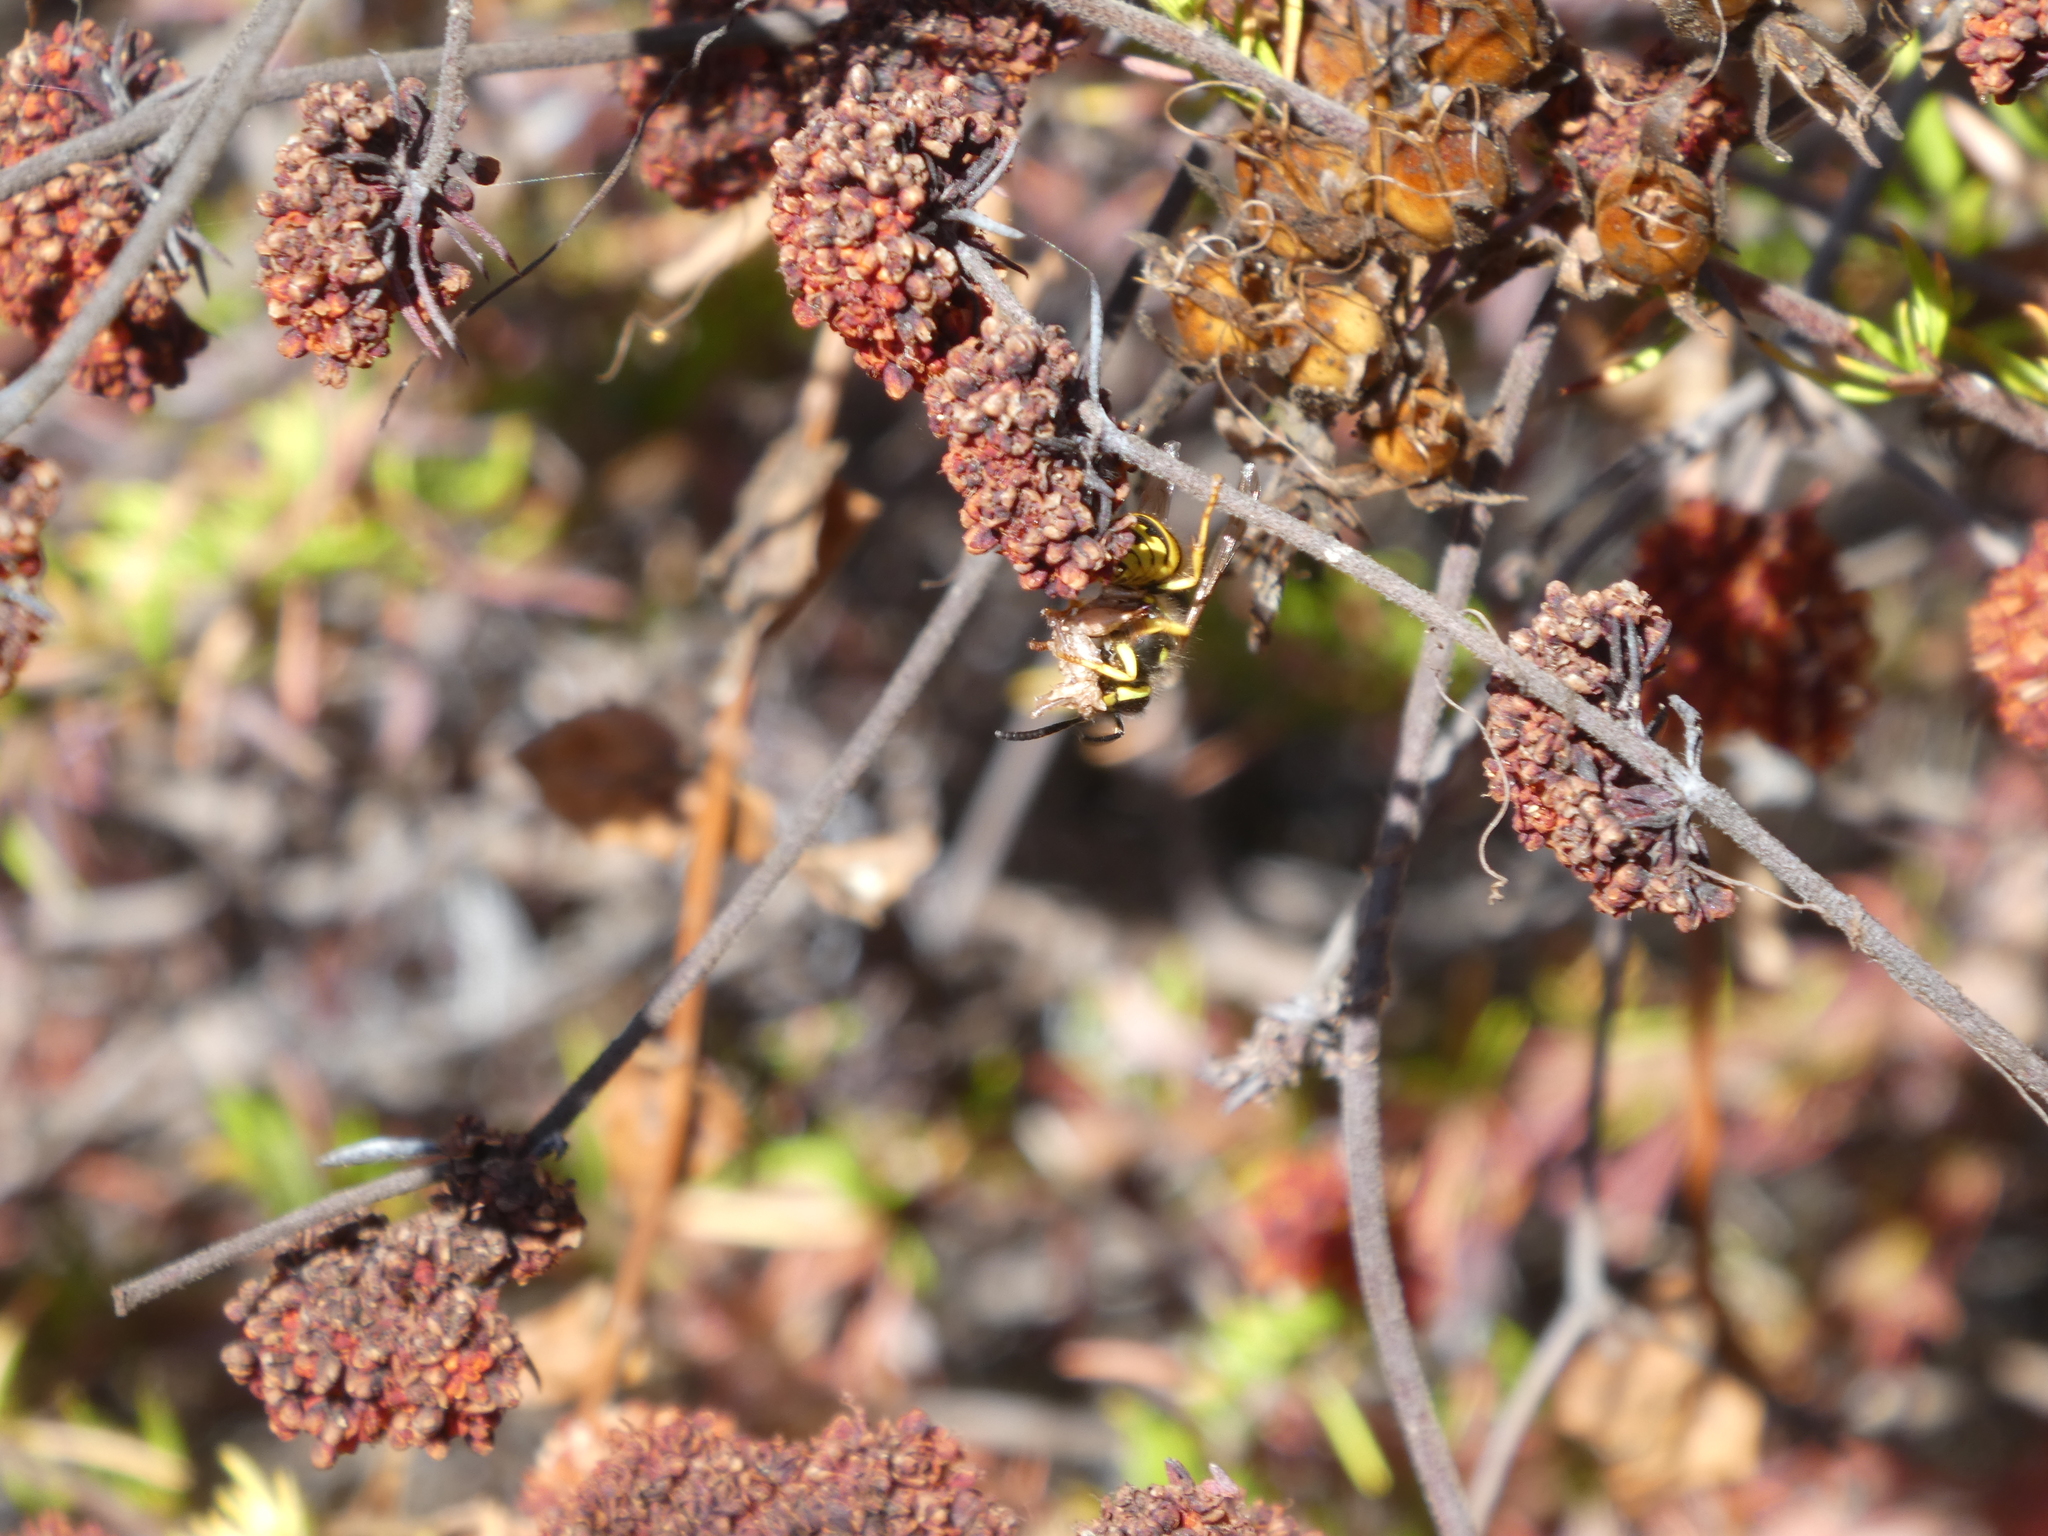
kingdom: Animalia
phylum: Arthropoda
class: Insecta
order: Hymenoptera
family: Vespidae
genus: Vespula
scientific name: Vespula
